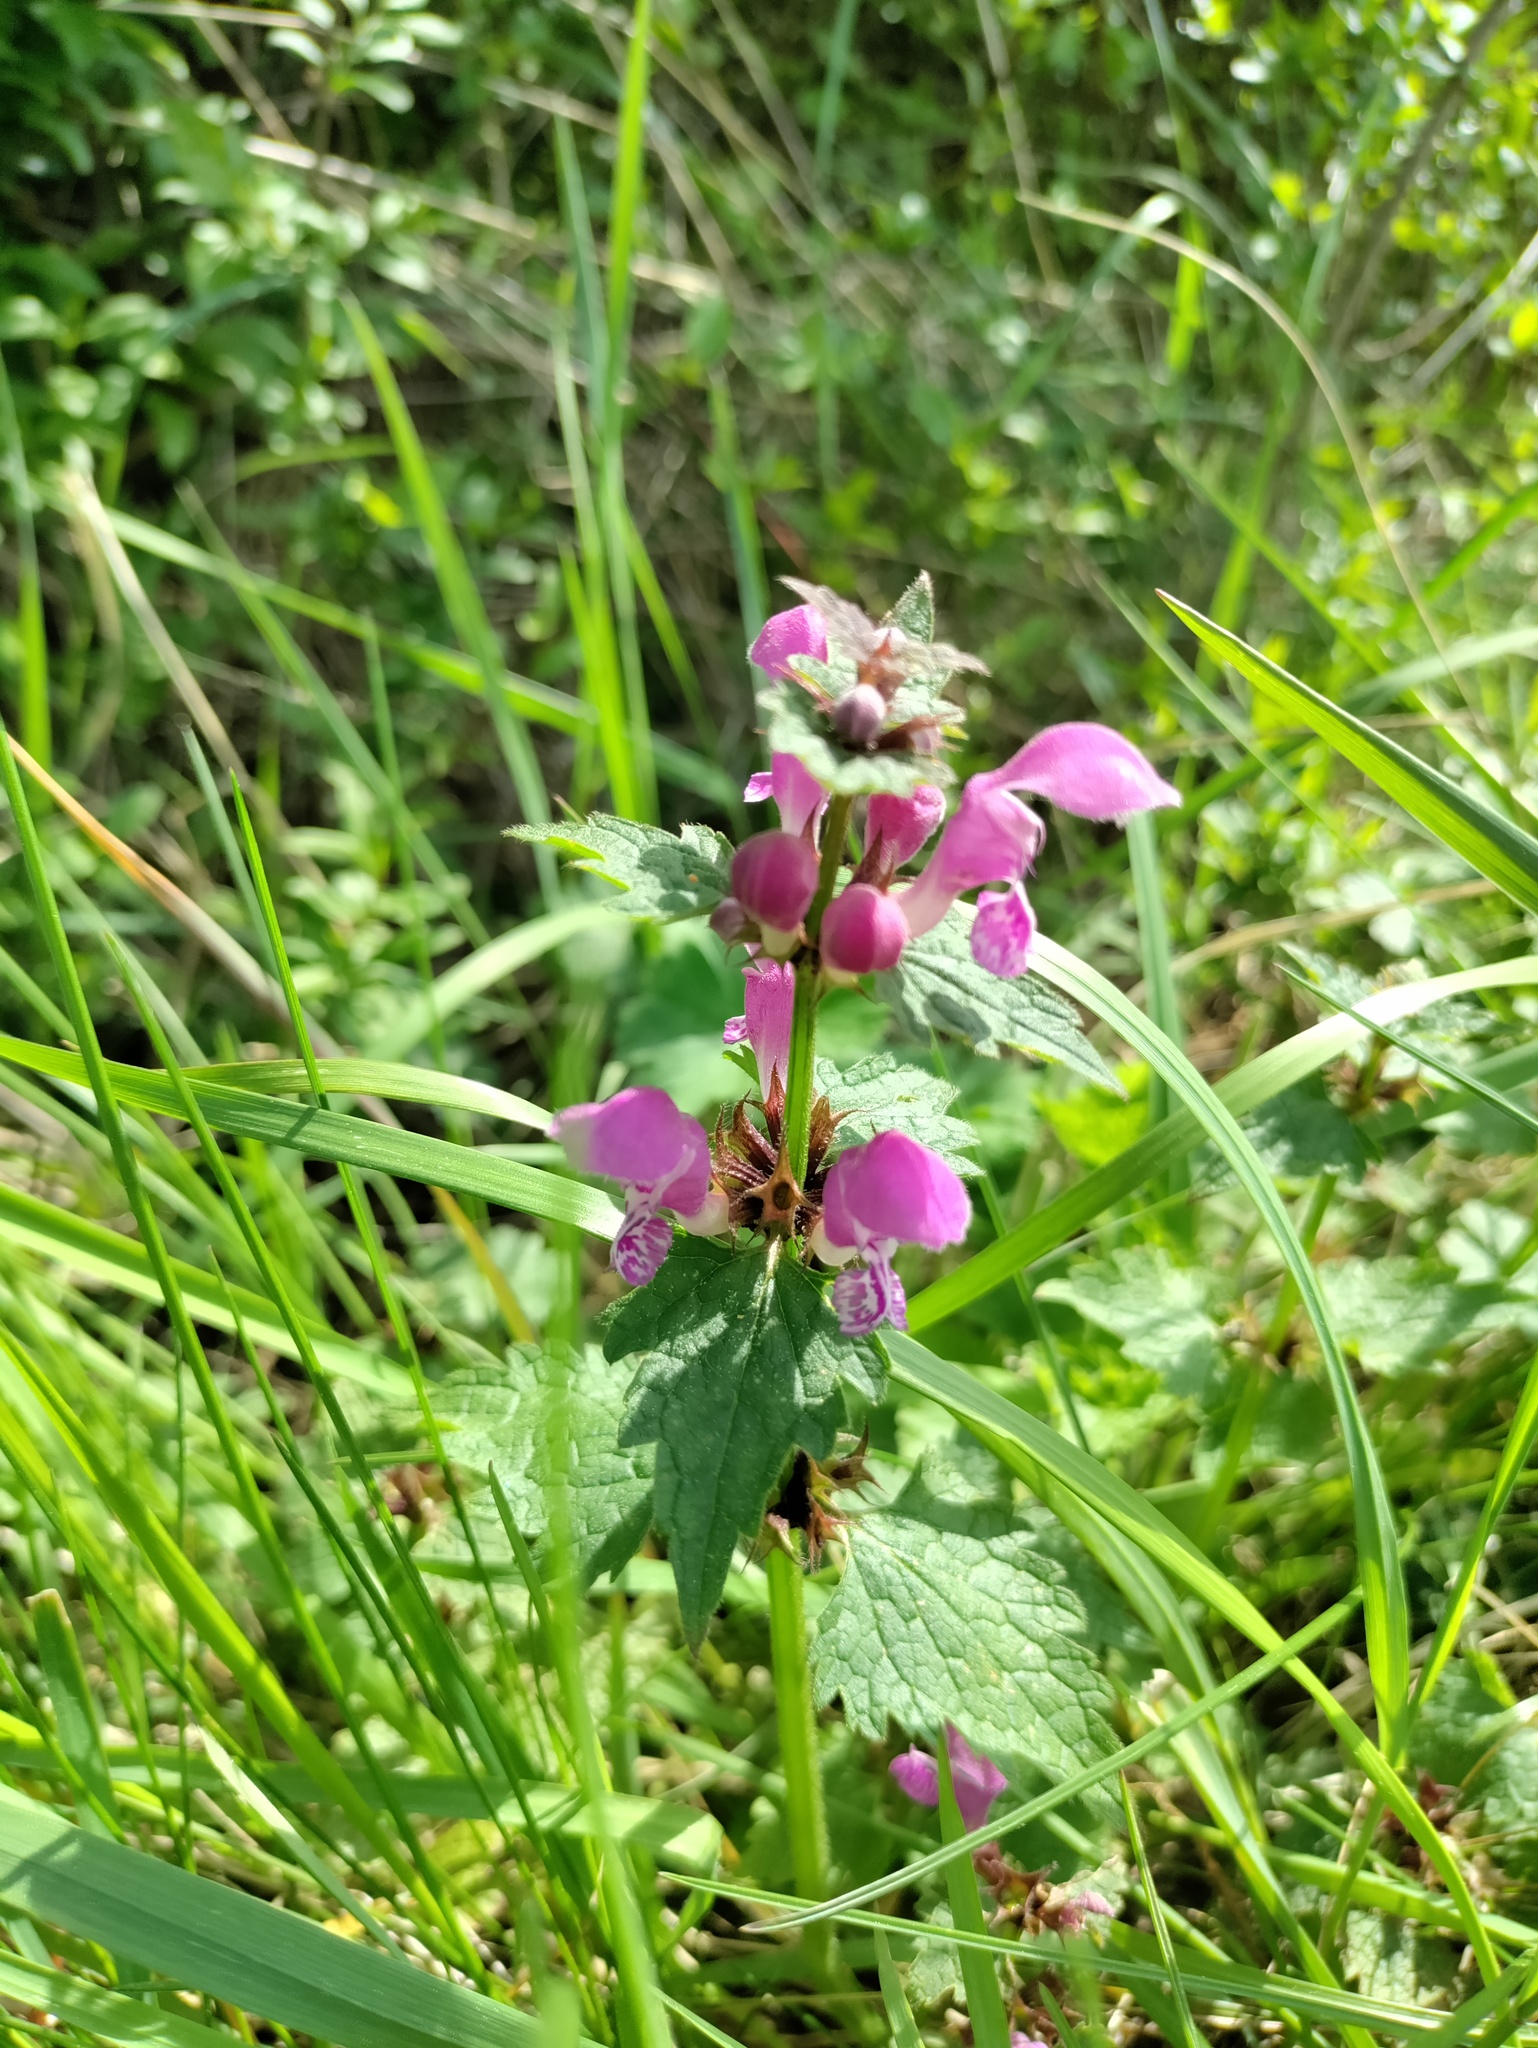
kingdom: Plantae
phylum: Tracheophyta
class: Magnoliopsida
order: Lamiales
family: Lamiaceae
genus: Lamium
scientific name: Lamium maculatum
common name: Spotted dead-nettle
